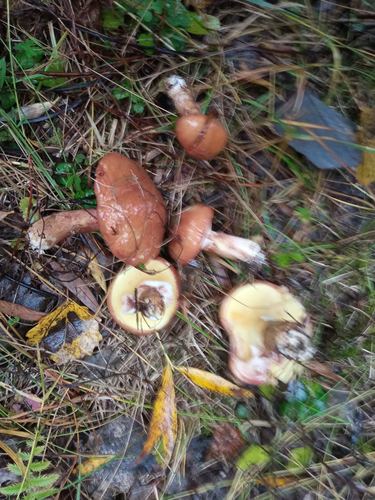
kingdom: Fungi
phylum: Basidiomycota
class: Agaricomycetes
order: Boletales
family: Suillaceae
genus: Suillus
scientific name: Suillus luteus
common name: Slippery jack
